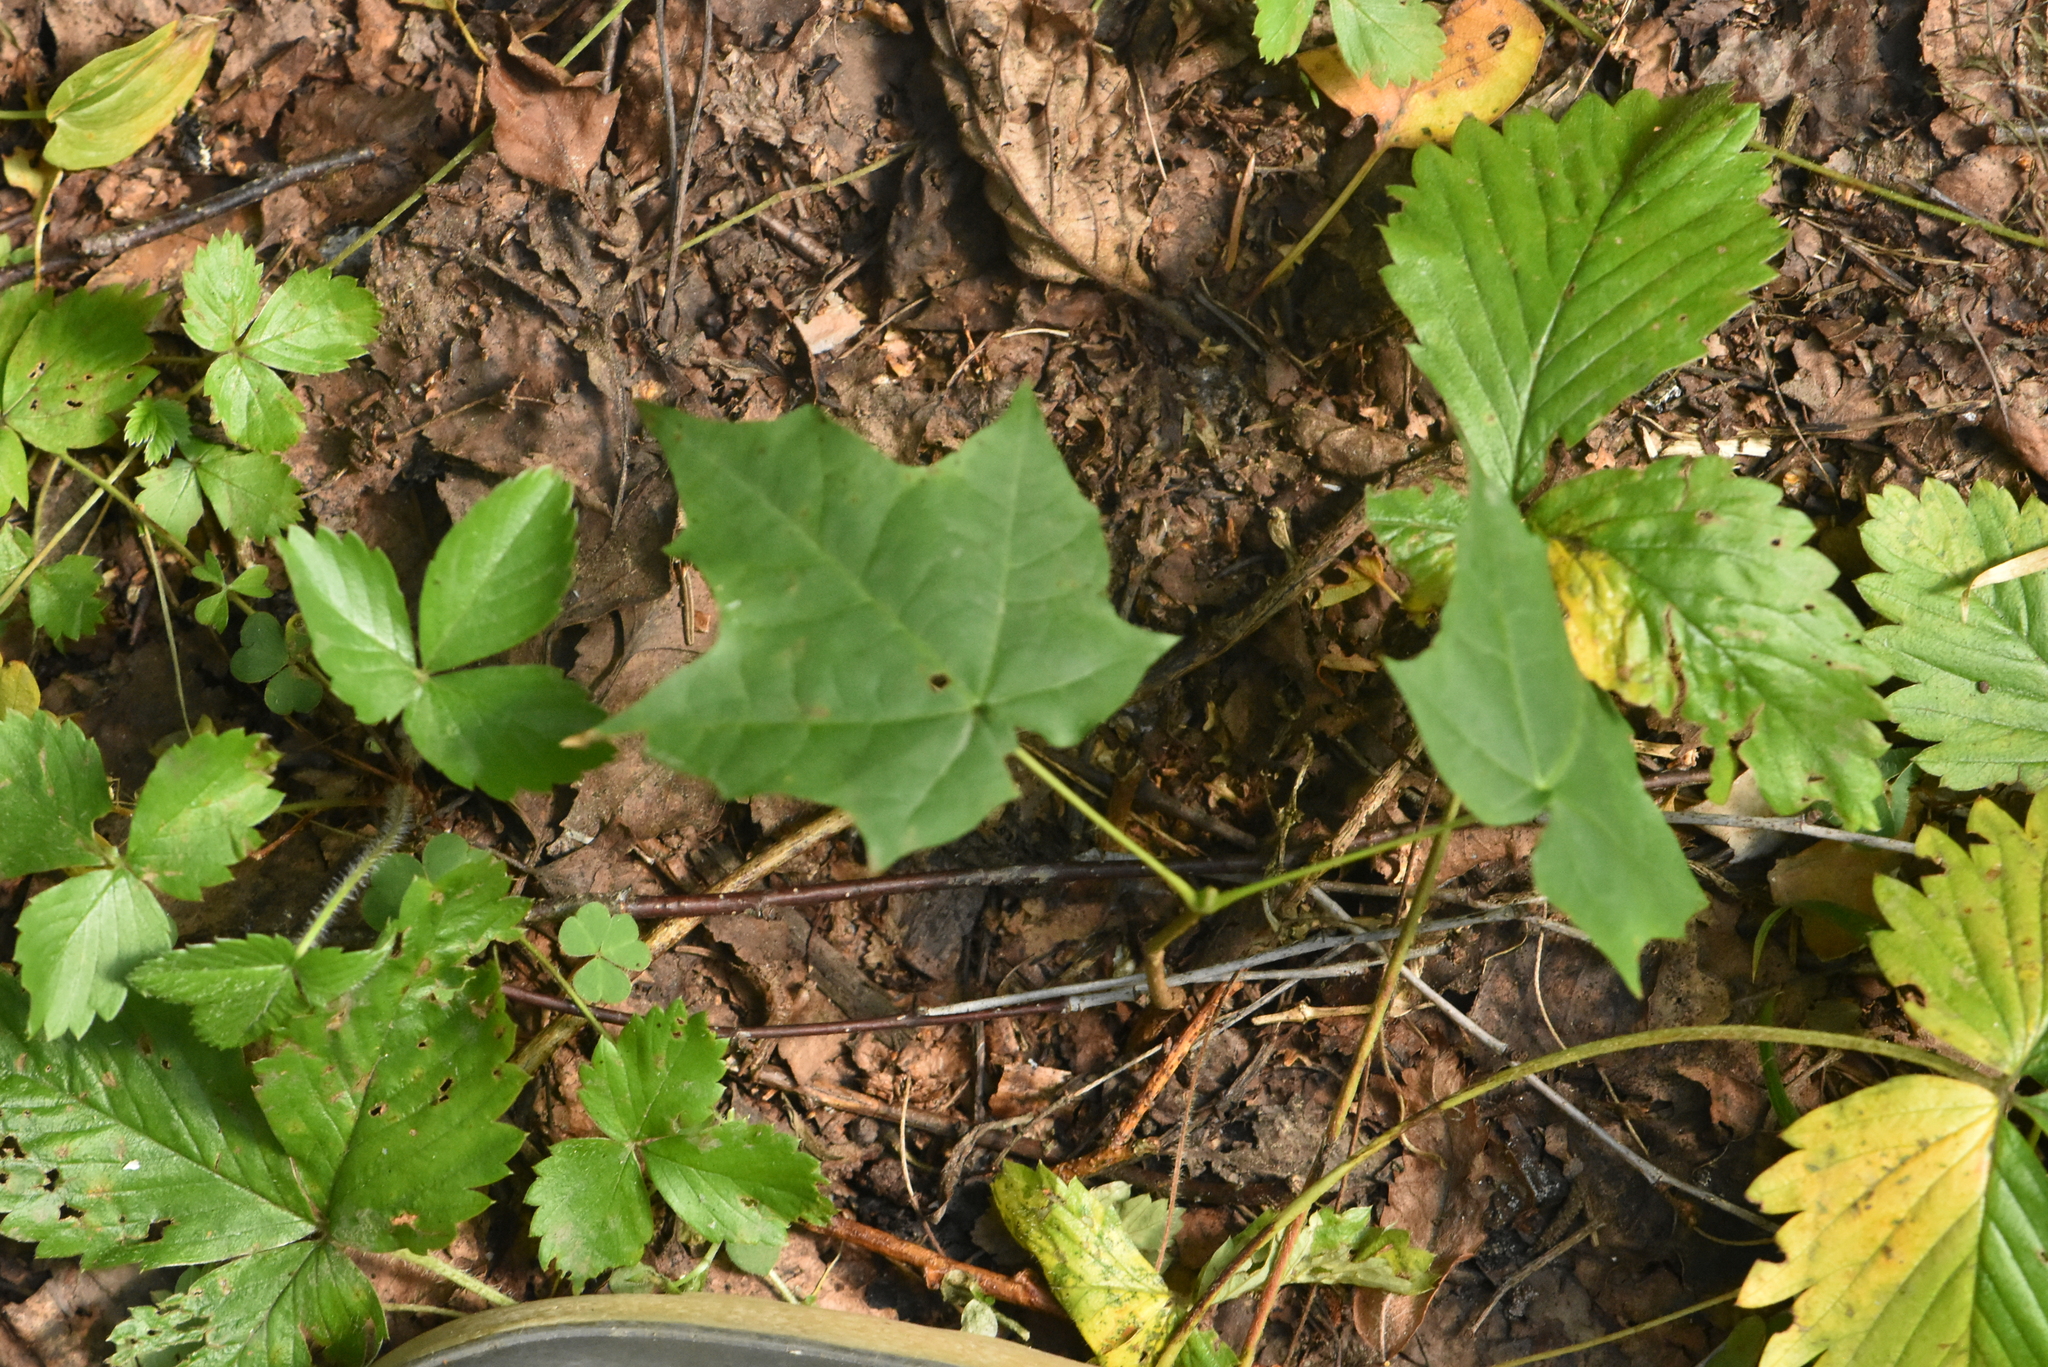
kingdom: Plantae
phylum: Tracheophyta
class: Magnoliopsida
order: Sapindales
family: Sapindaceae
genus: Acer
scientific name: Acer platanoides
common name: Norway maple
